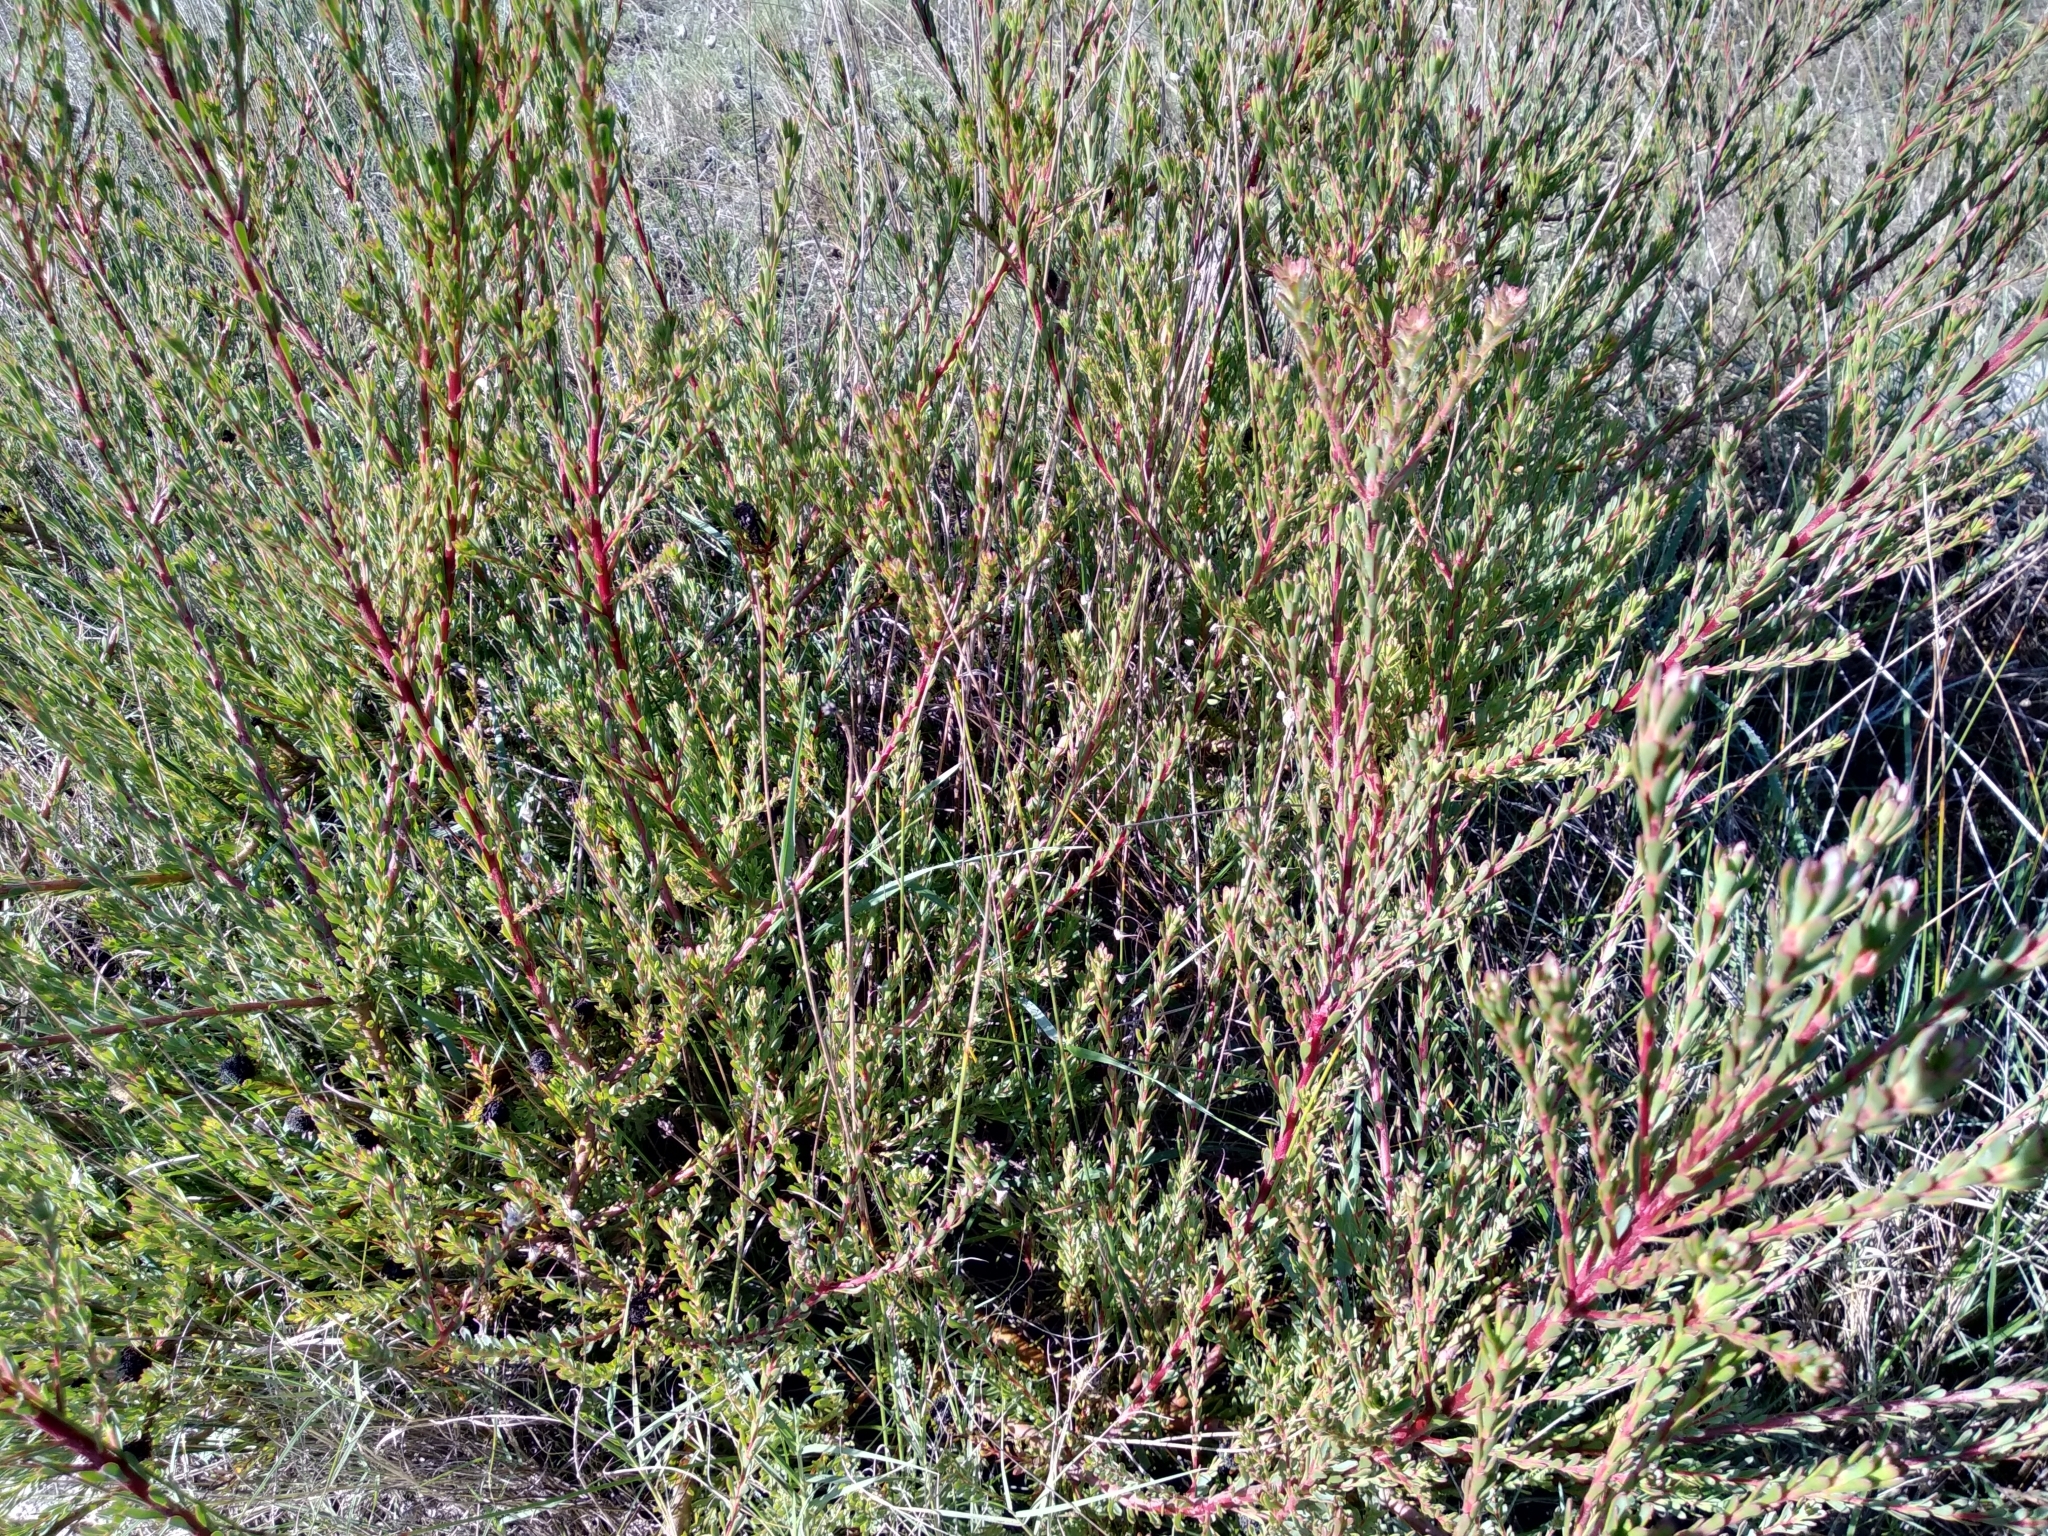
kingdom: Plantae
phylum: Tracheophyta
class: Magnoliopsida
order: Proteales
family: Proteaceae
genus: Leucadendron
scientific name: Leucadendron levisanus
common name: Cape flats conebush
